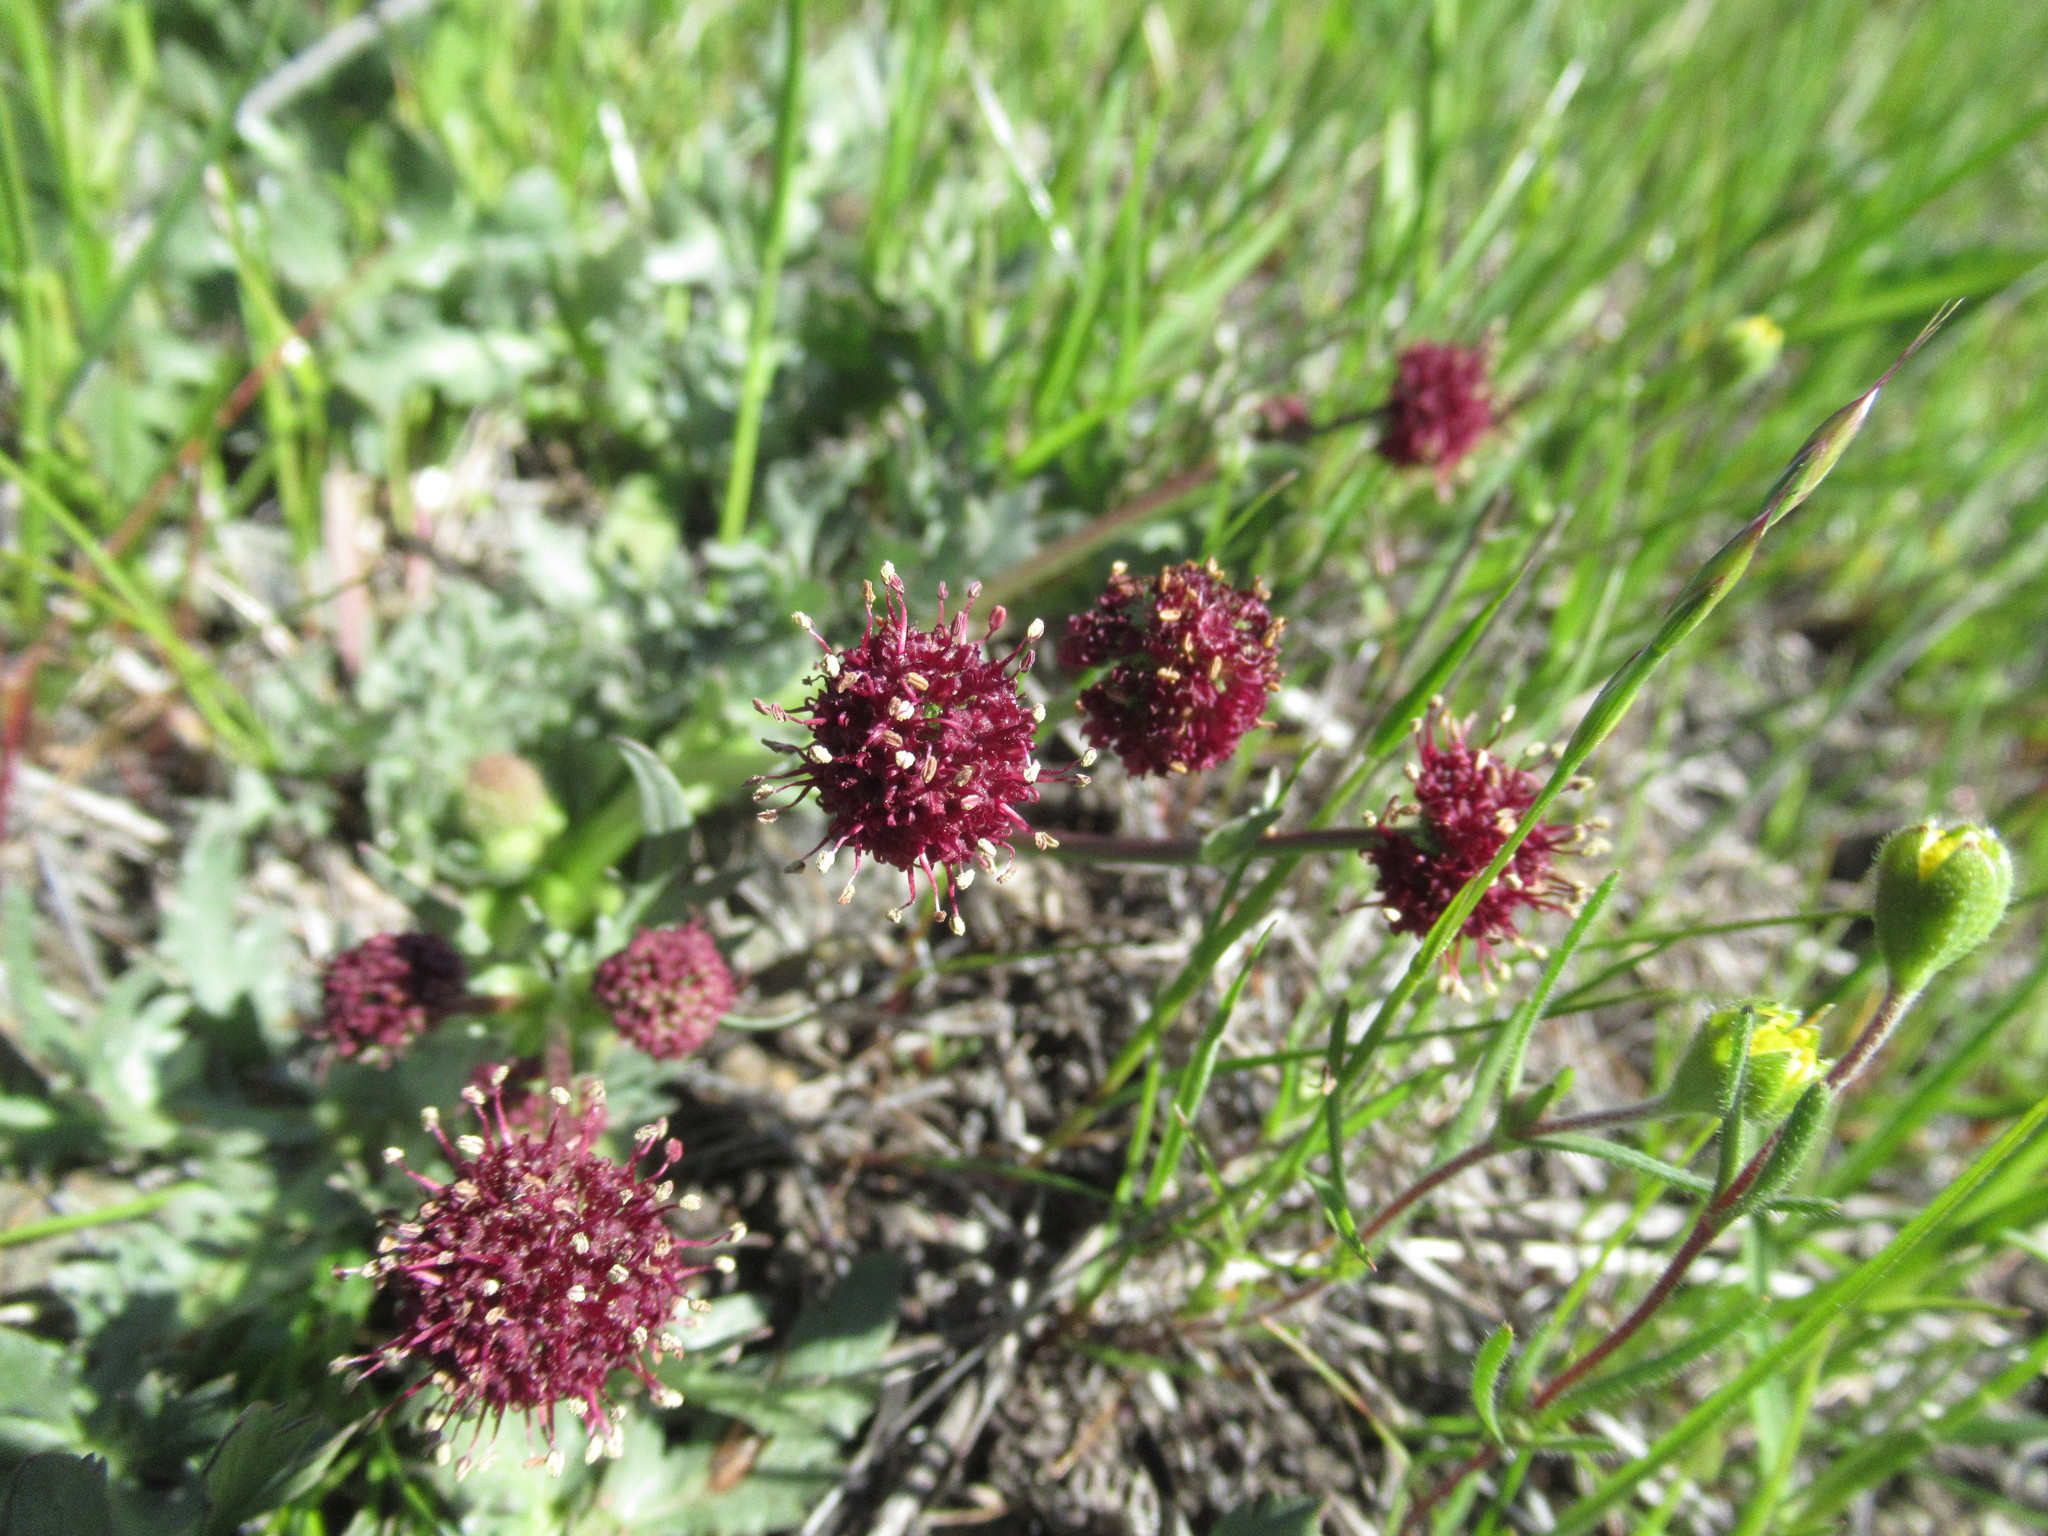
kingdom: Plantae
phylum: Tracheophyta
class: Magnoliopsida
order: Apiales
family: Apiaceae
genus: Sanicula
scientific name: Sanicula bipinnatifida
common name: Shoe-buttons
